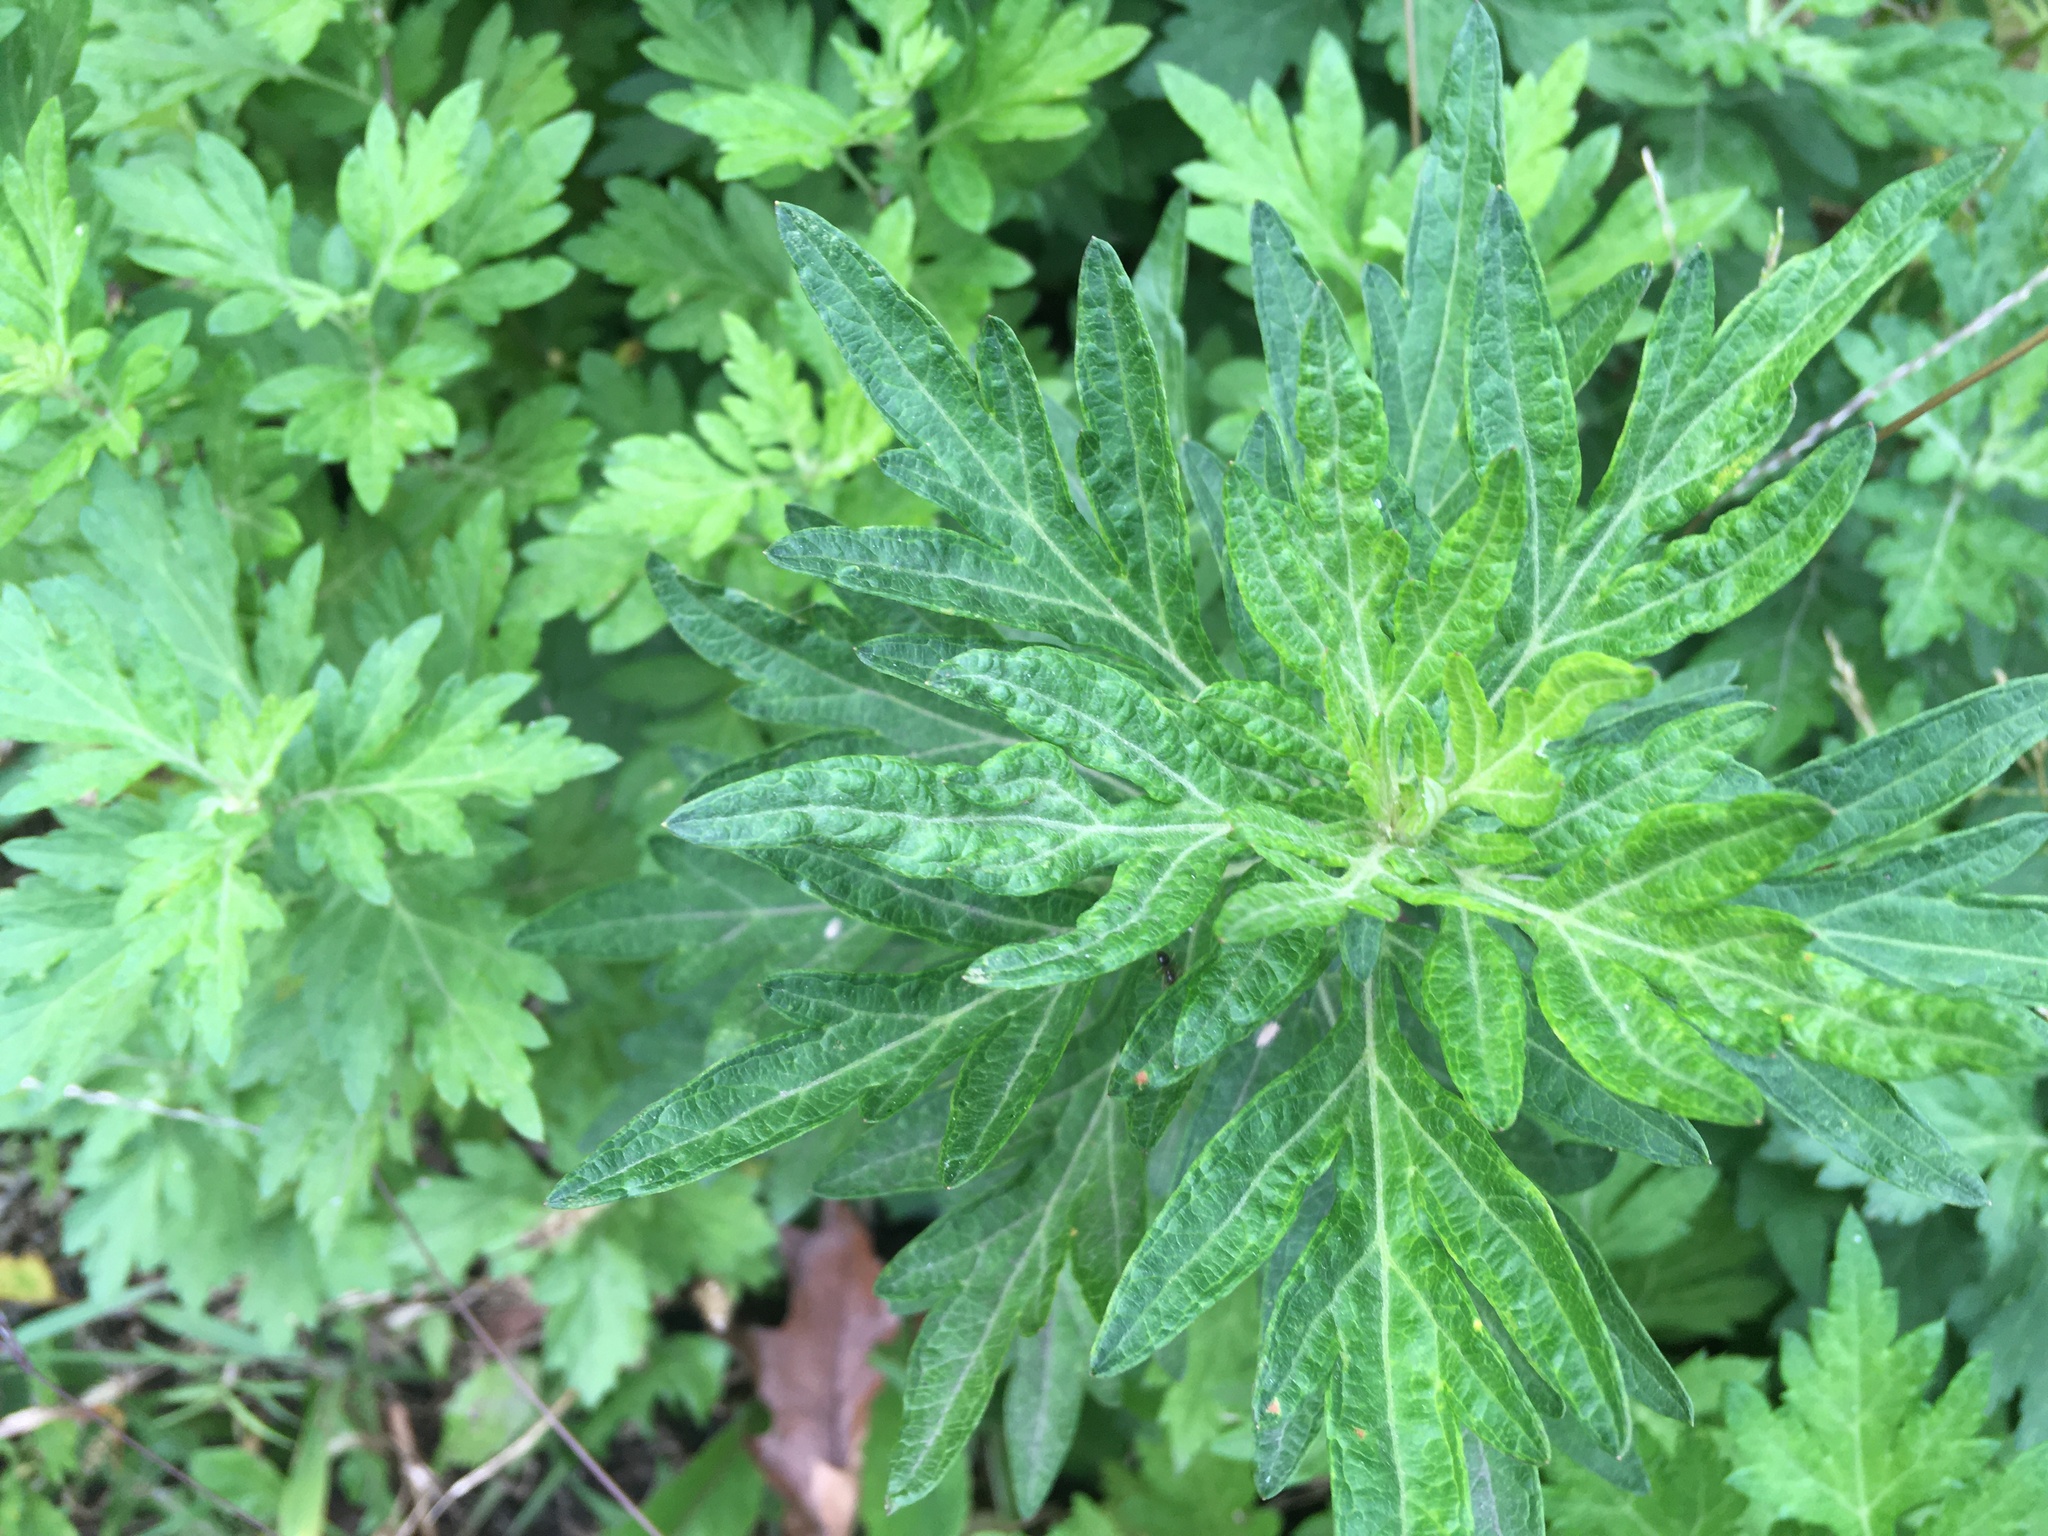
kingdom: Plantae
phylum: Tracheophyta
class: Magnoliopsida
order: Asterales
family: Asteraceae
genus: Artemisia
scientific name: Artemisia vulgaris
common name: Mugwort
